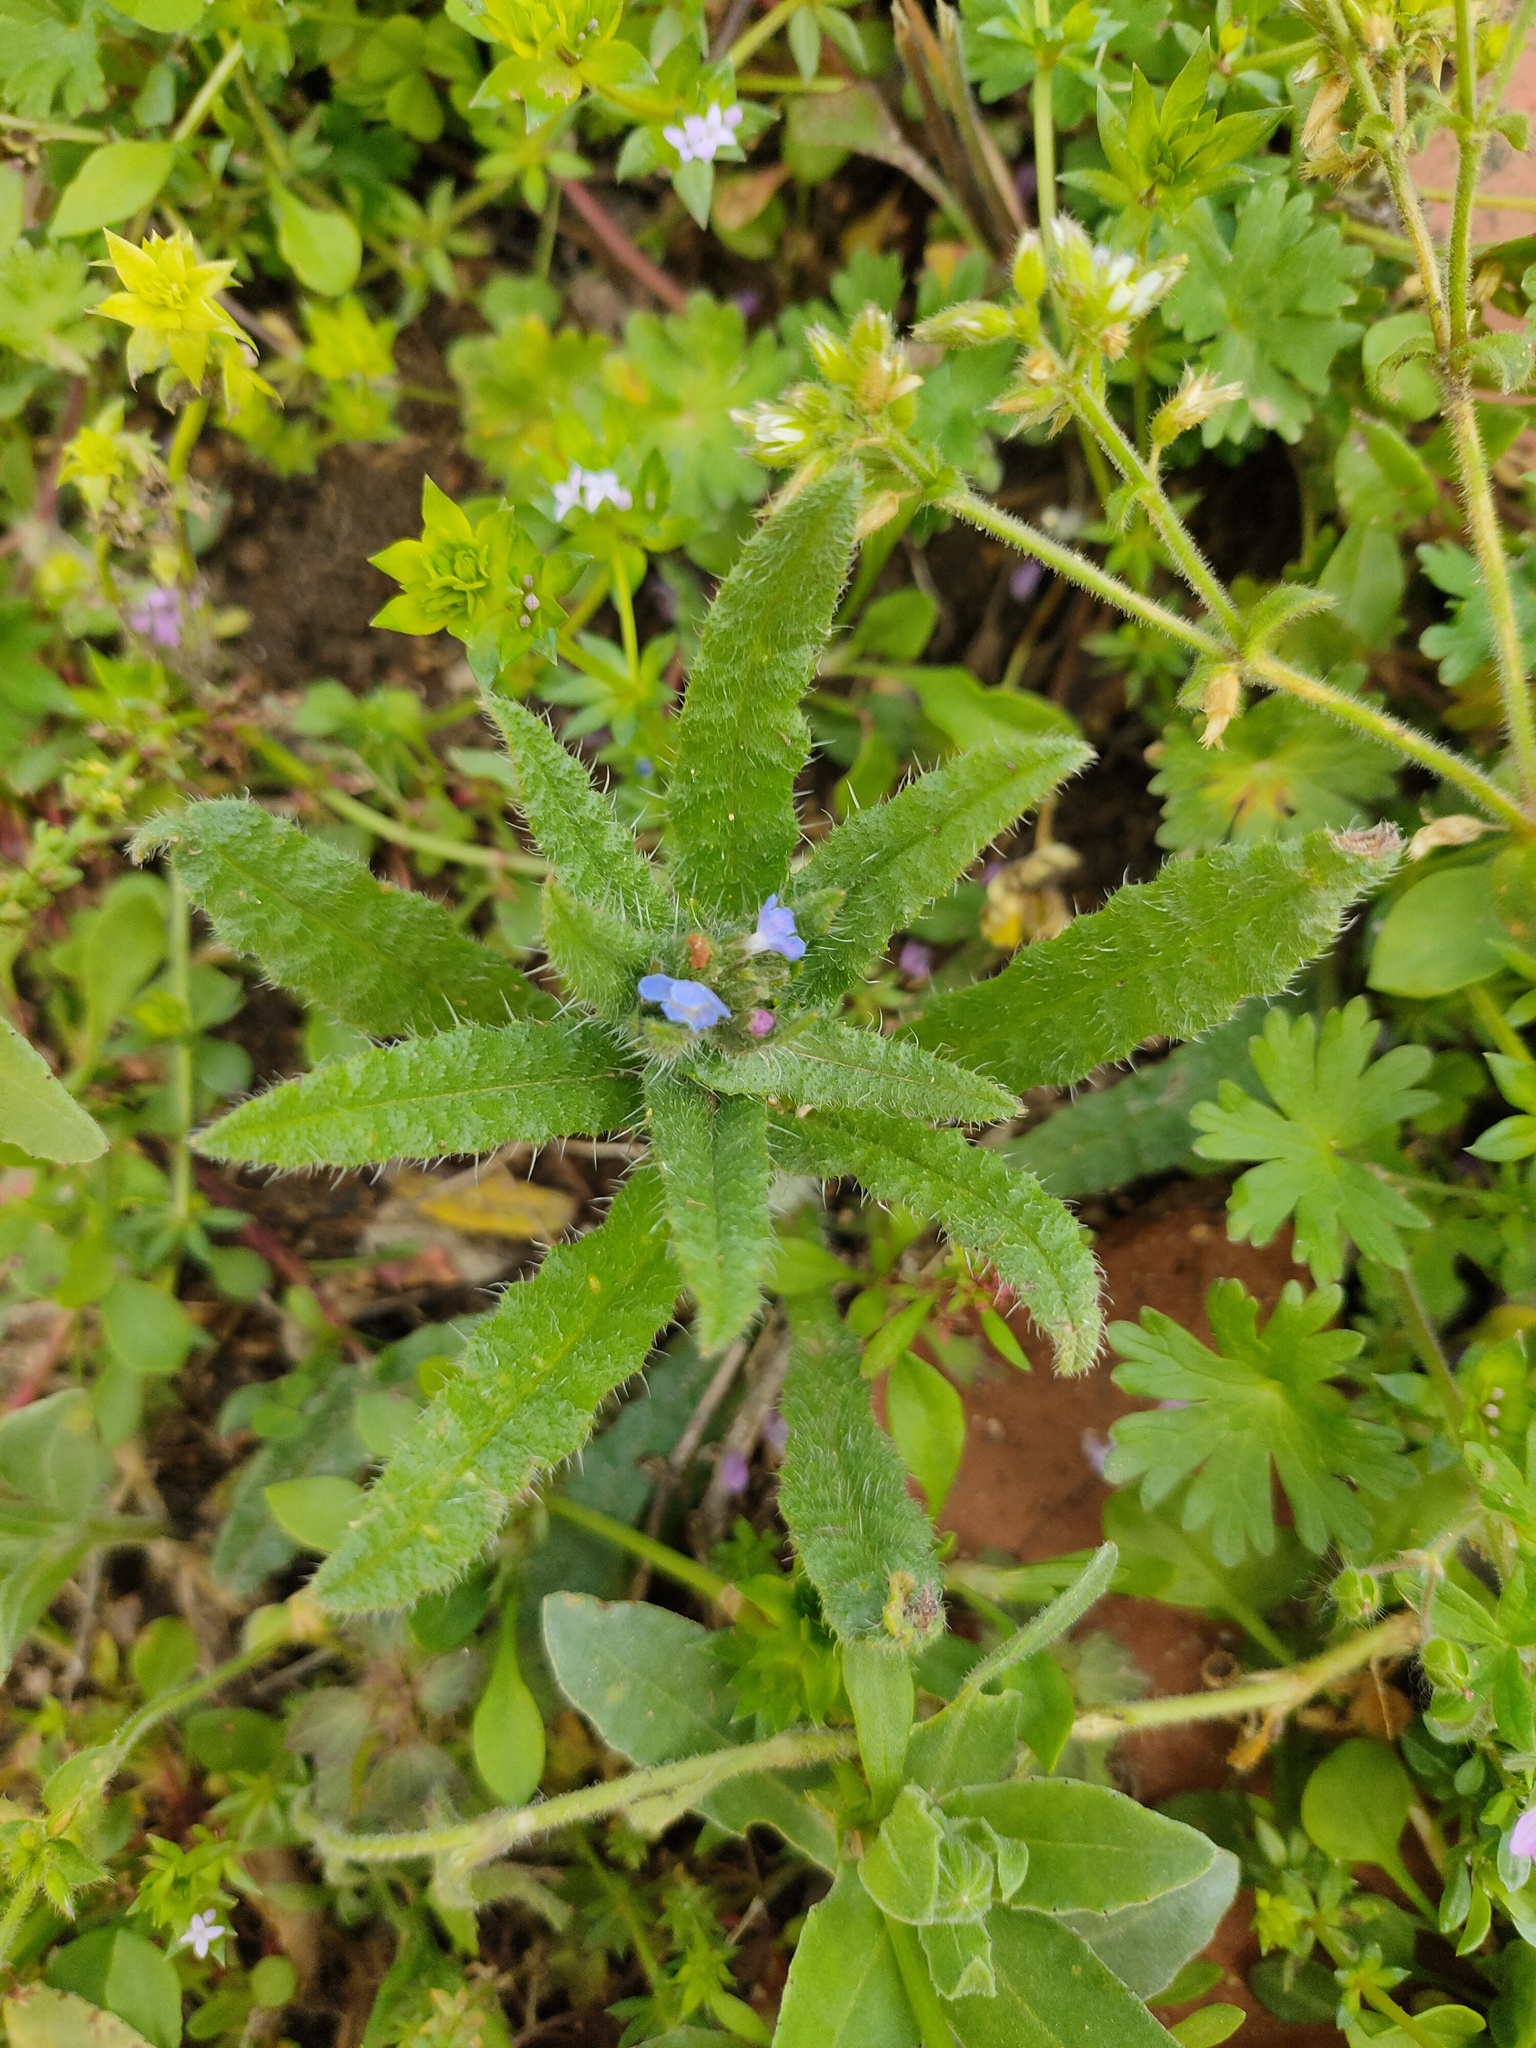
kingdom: Plantae
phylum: Tracheophyta
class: Magnoliopsida
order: Boraginales
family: Boraginaceae
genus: Lycopsis
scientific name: Lycopsis arvensis
